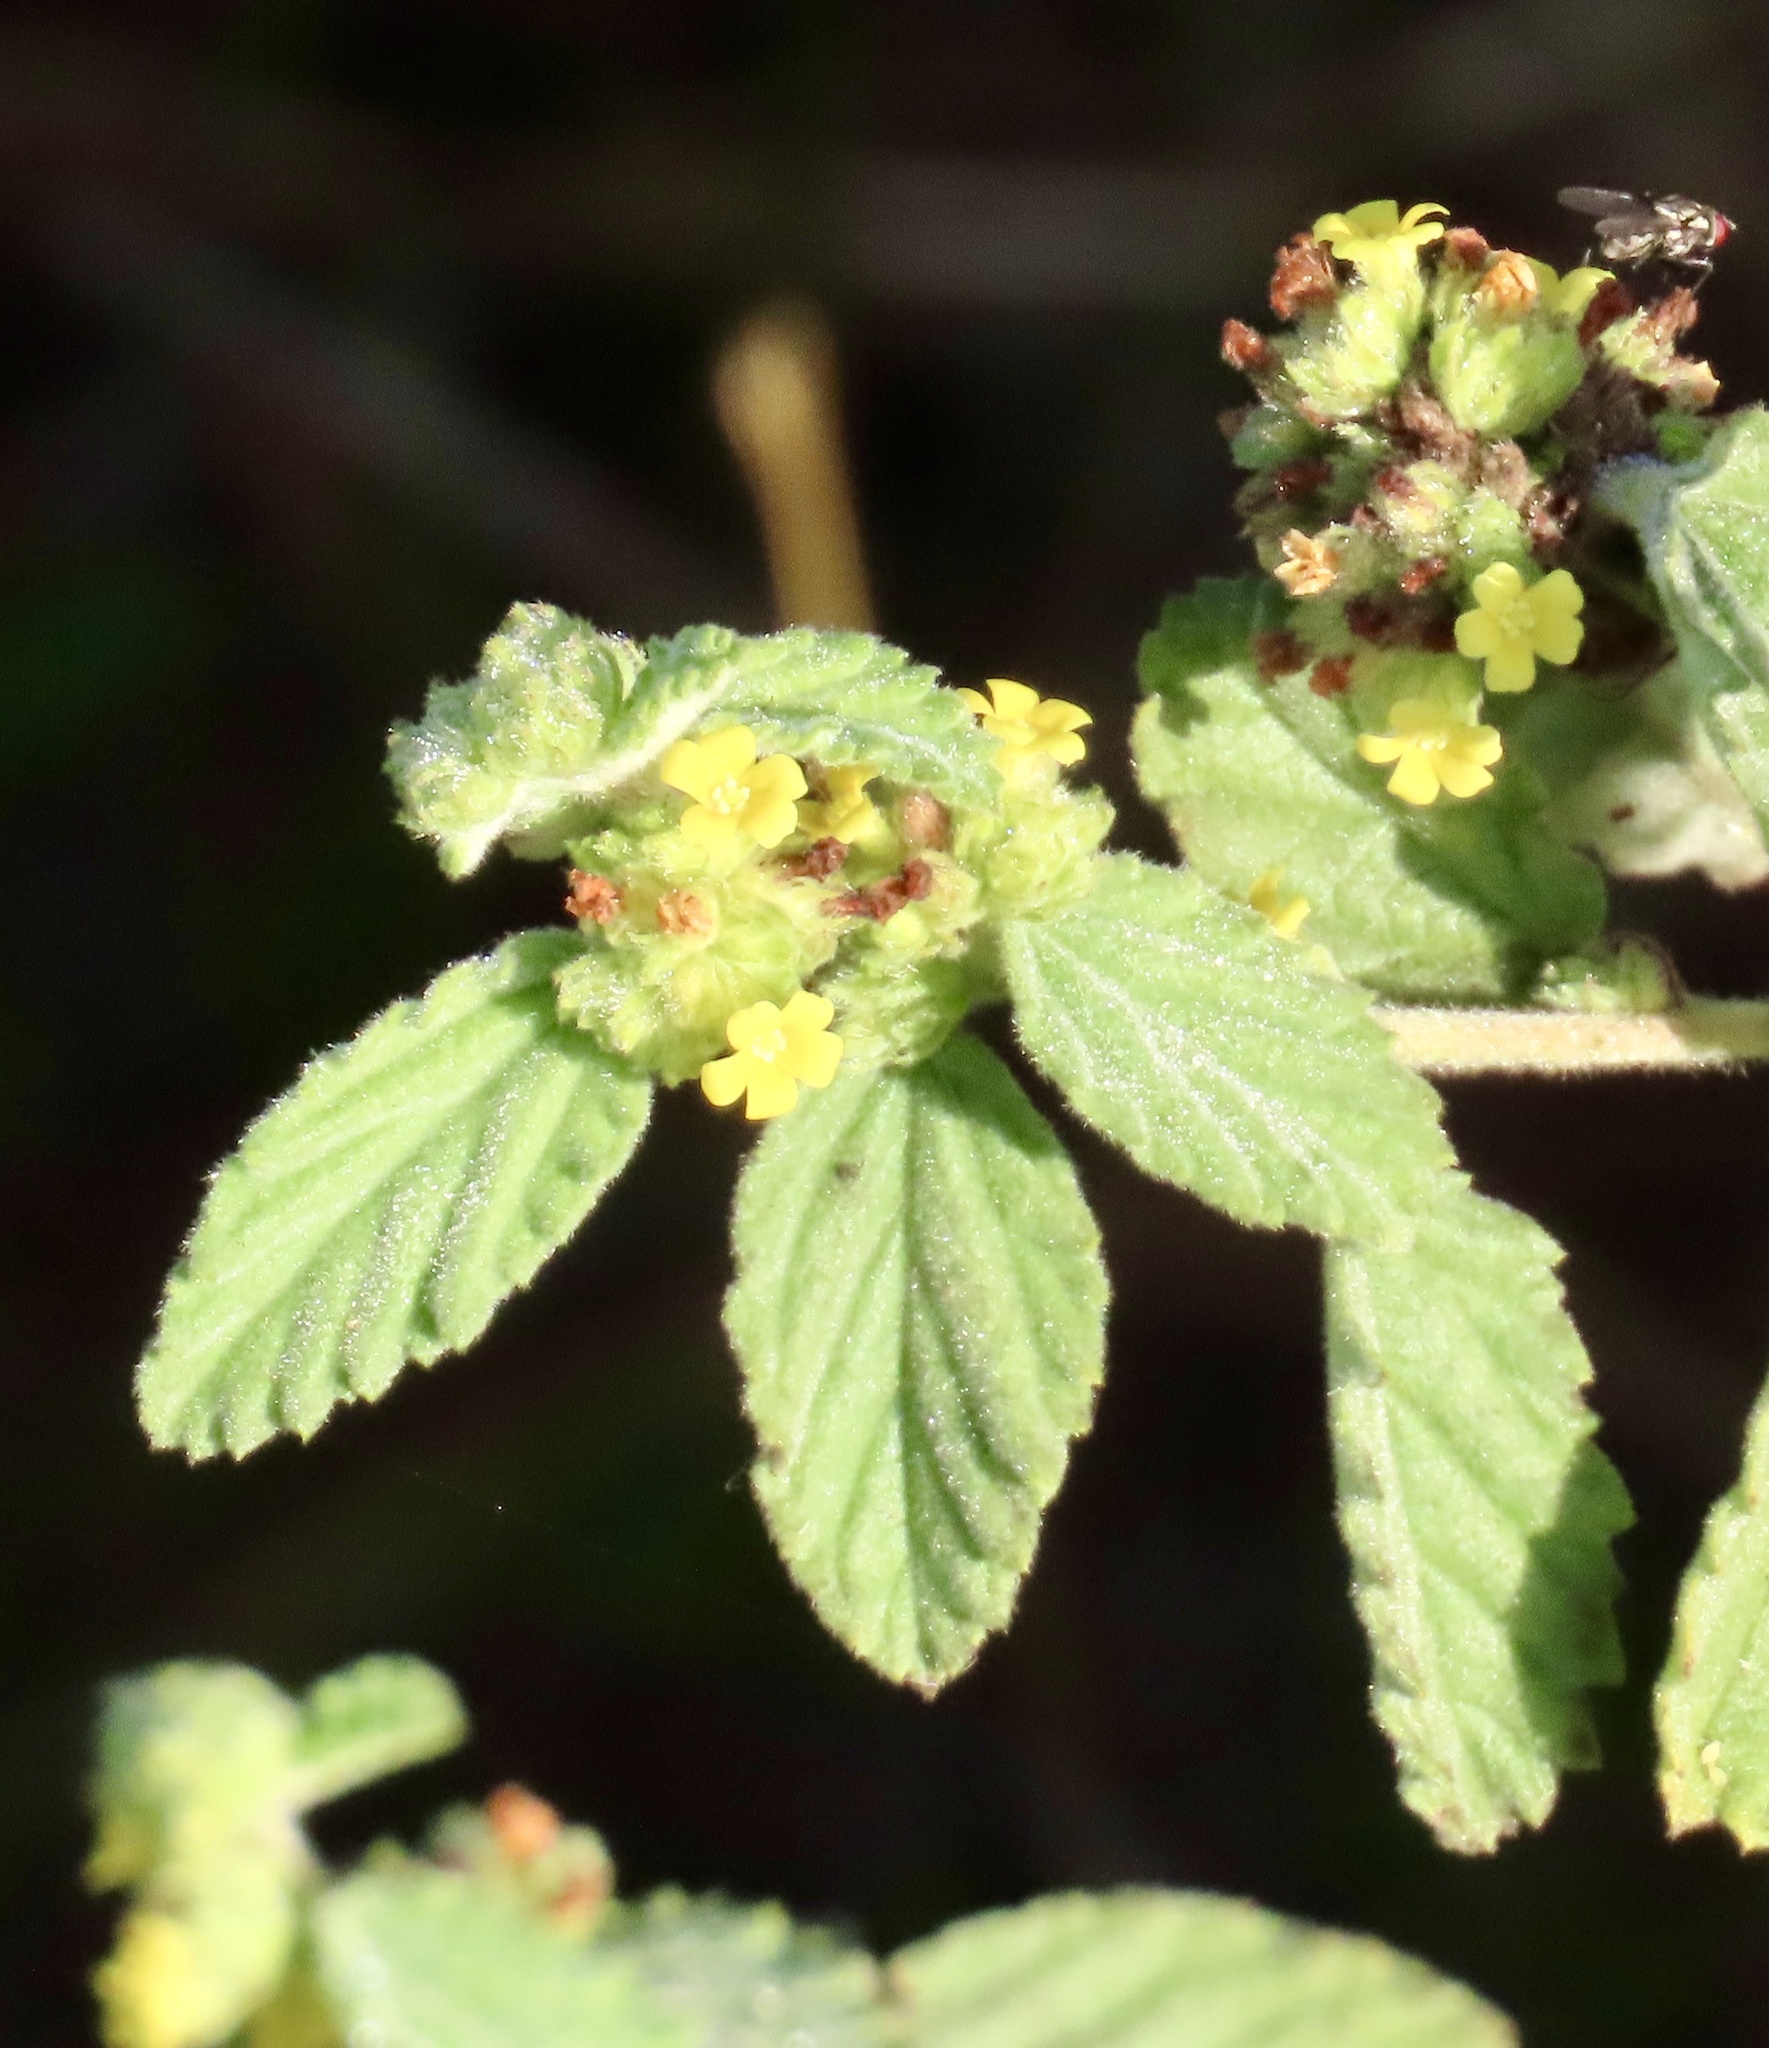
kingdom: Plantae
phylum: Tracheophyta
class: Magnoliopsida
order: Malvales
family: Malvaceae
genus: Waltheria
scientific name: Waltheria indica
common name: Leather-coat
